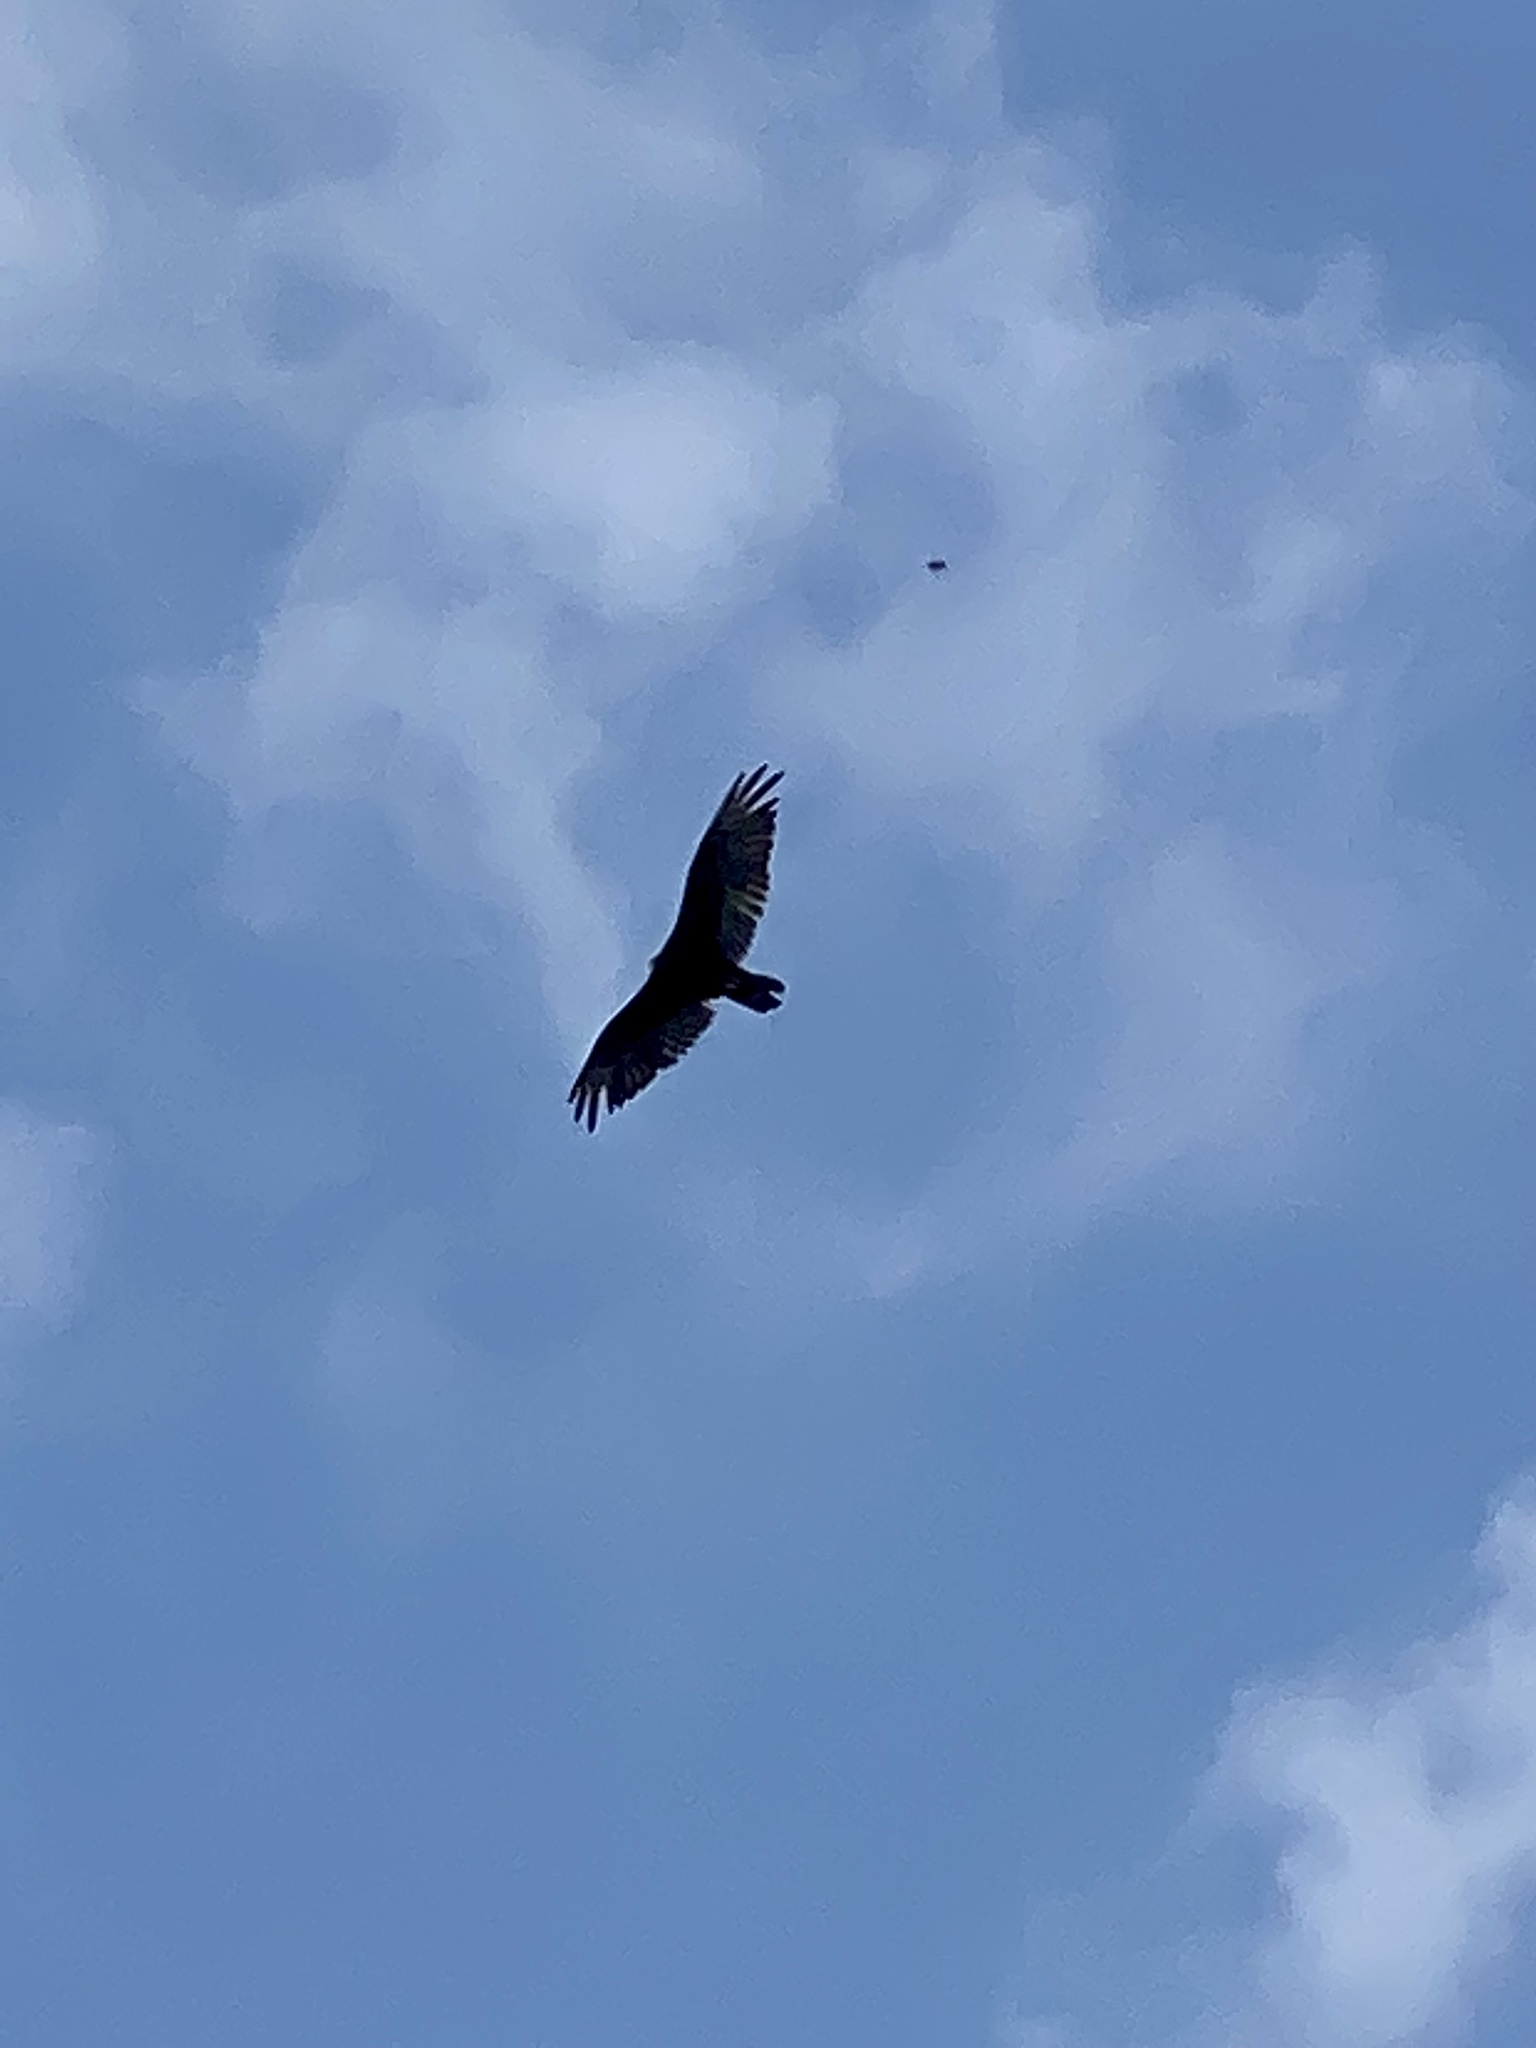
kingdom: Animalia
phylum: Chordata
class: Aves
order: Accipitriformes
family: Cathartidae
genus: Cathartes
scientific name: Cathartes aura
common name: Turkey vulture
